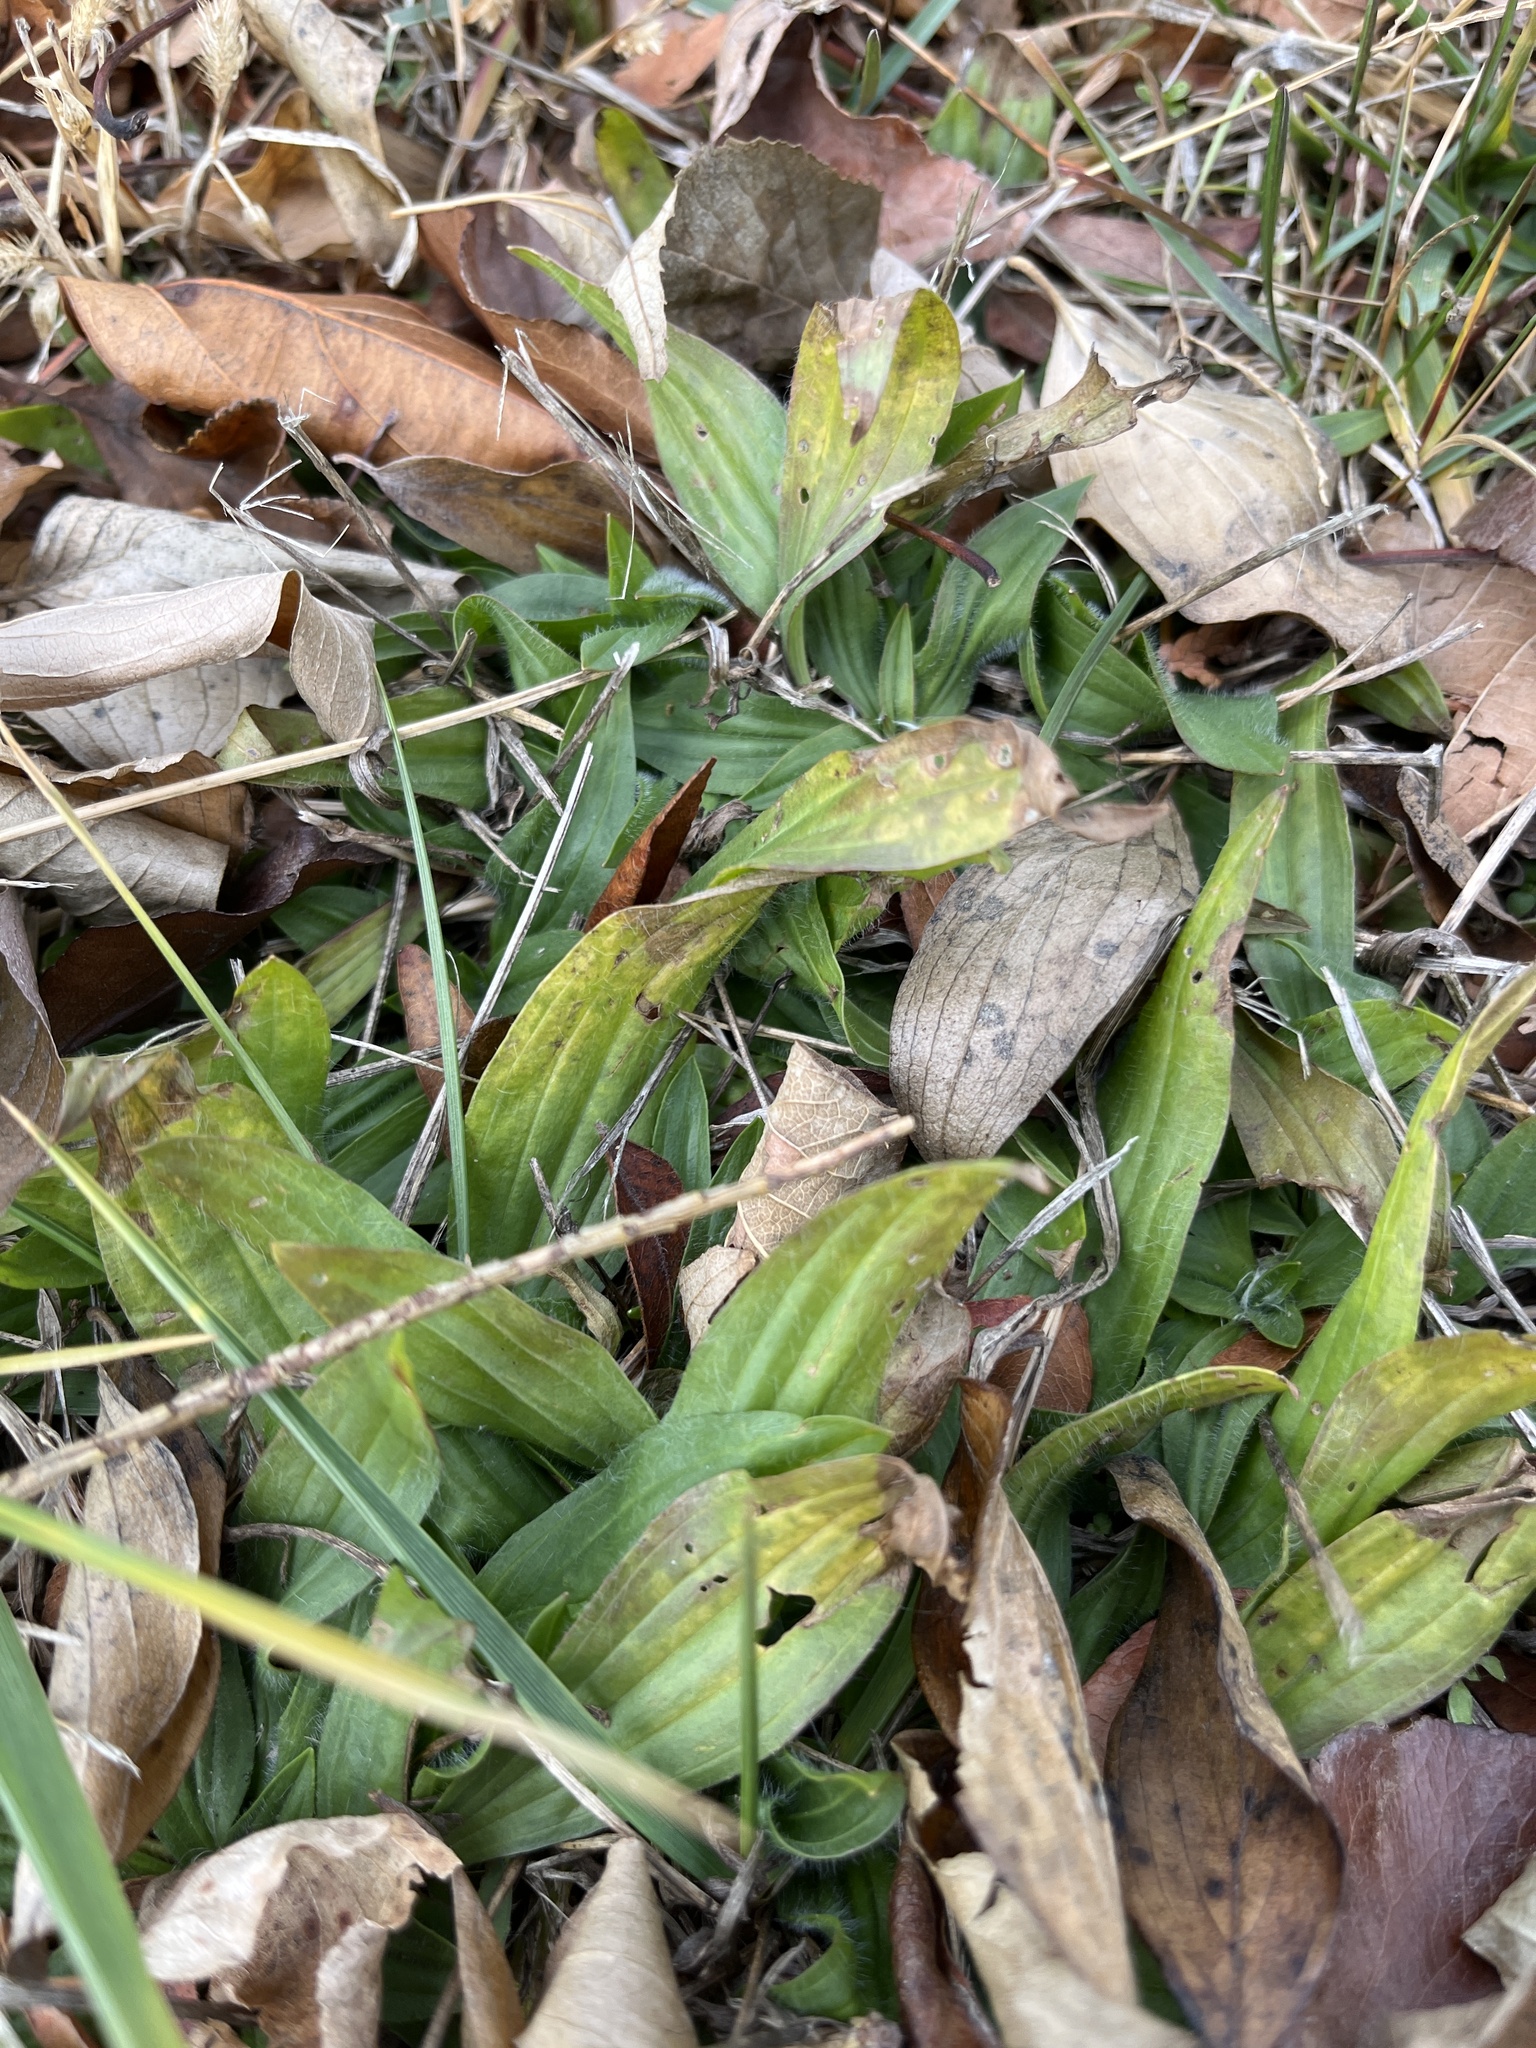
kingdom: Plantae
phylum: Tracheophyta
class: Magnoliopsida
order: Lamiales
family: Plantaginaceae
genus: Plantago
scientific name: Plantago lanceolata
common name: Ribwort plantain
